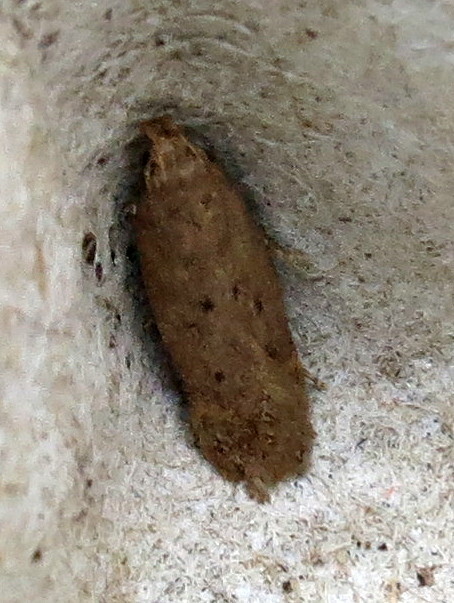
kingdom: Animalia
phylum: Arthropoda
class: Insecta
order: Lepidoptera
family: Gelechiidae
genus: Bryotropha
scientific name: Bryotropha terrella
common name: Cinerous groundling
